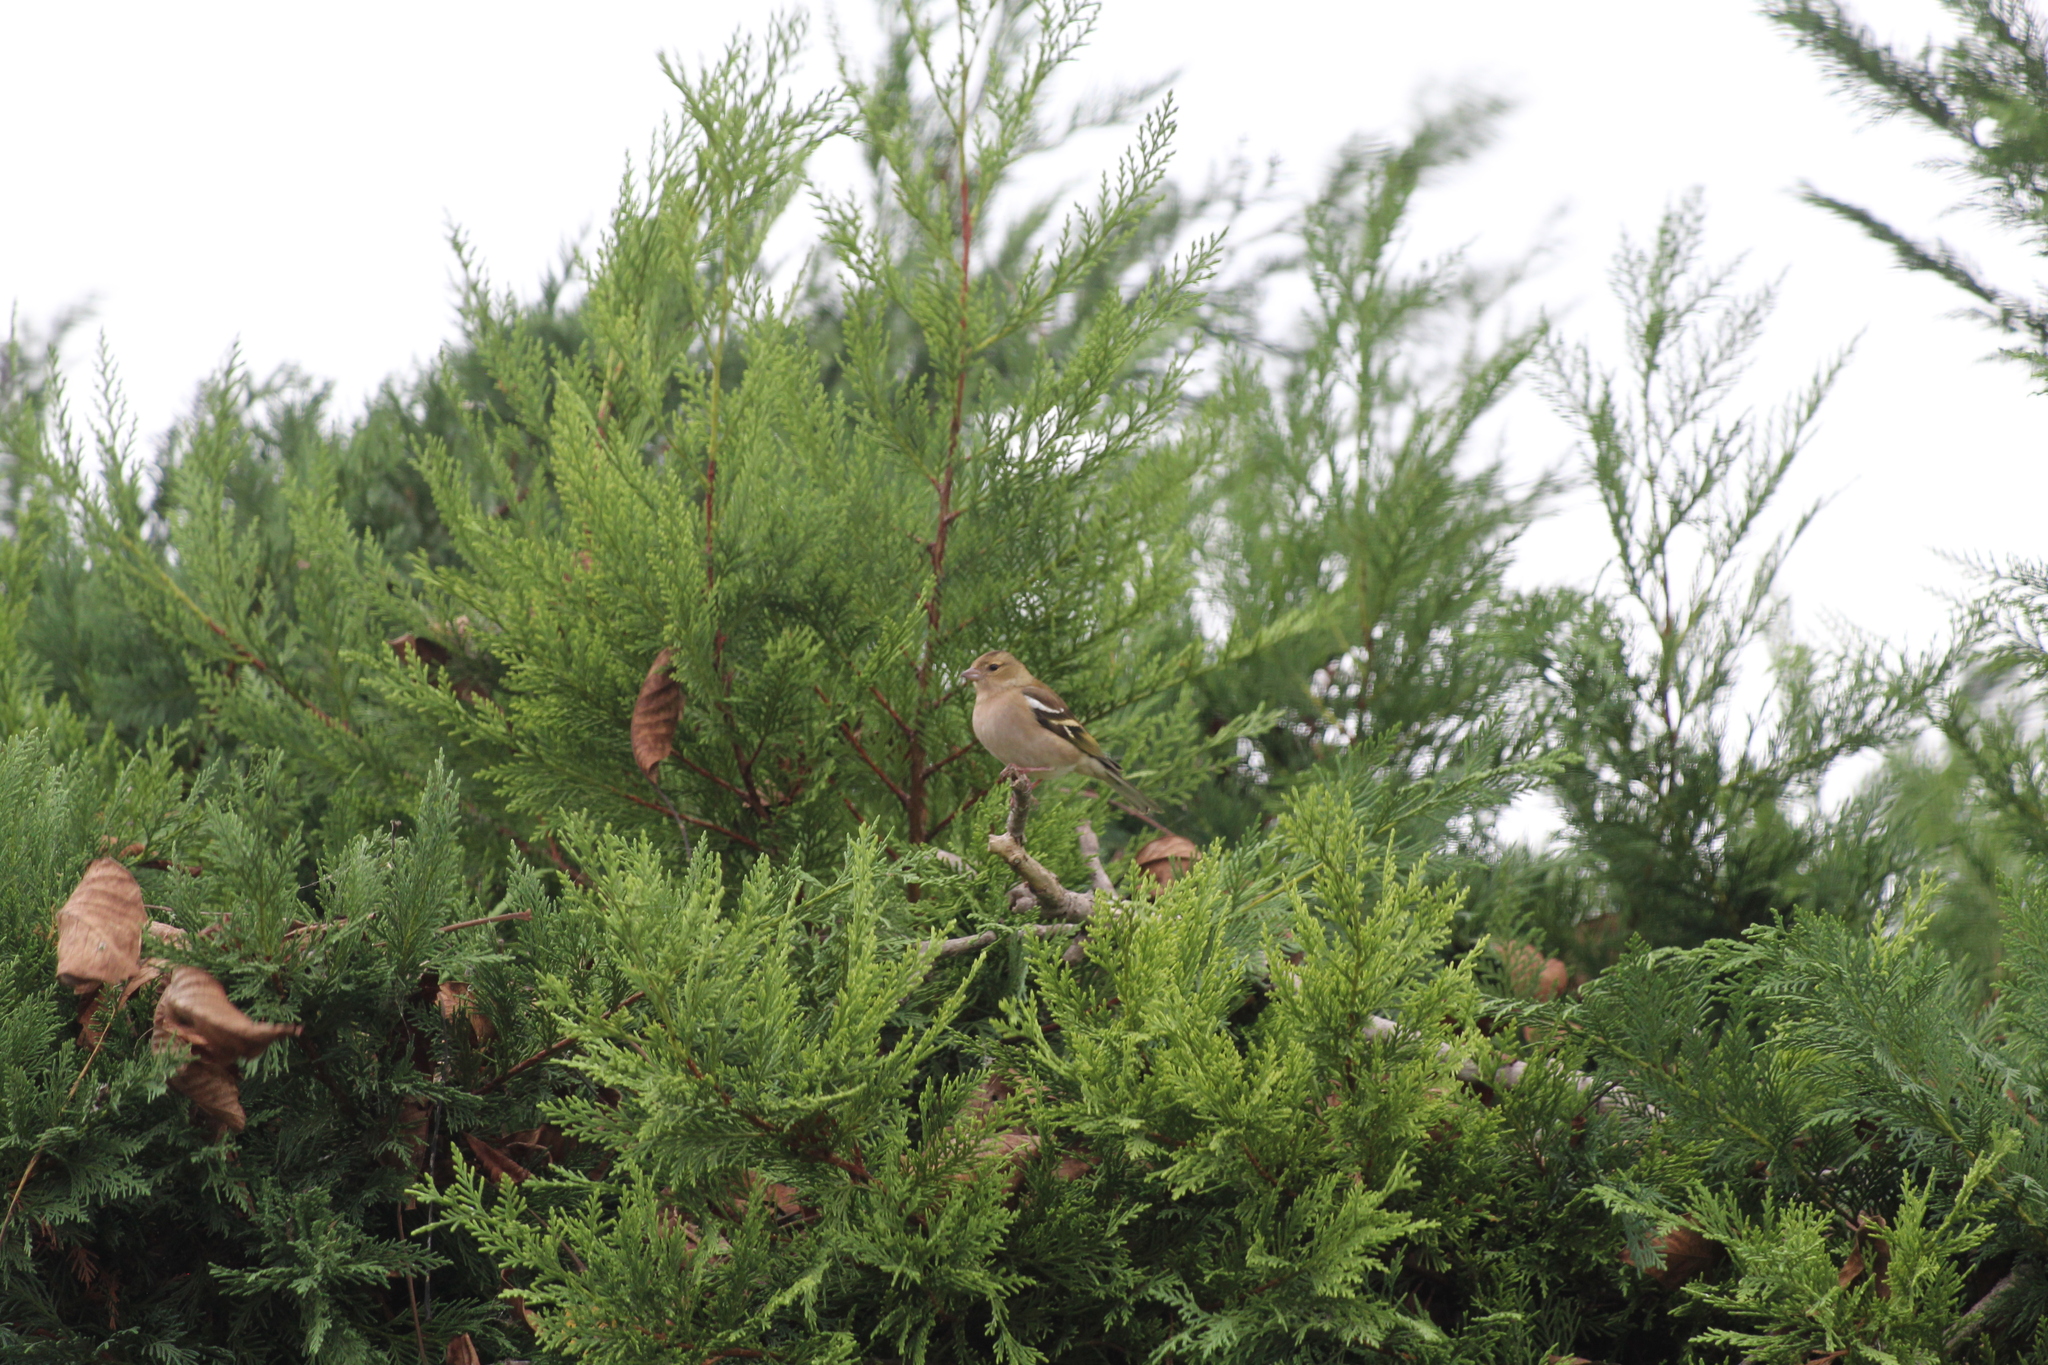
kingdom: Animalia
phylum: Chordata
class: Aves
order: Passeriformes
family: Fringillidae
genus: Fringilla
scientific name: Fringilla coelebs
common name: Common chaffinch
